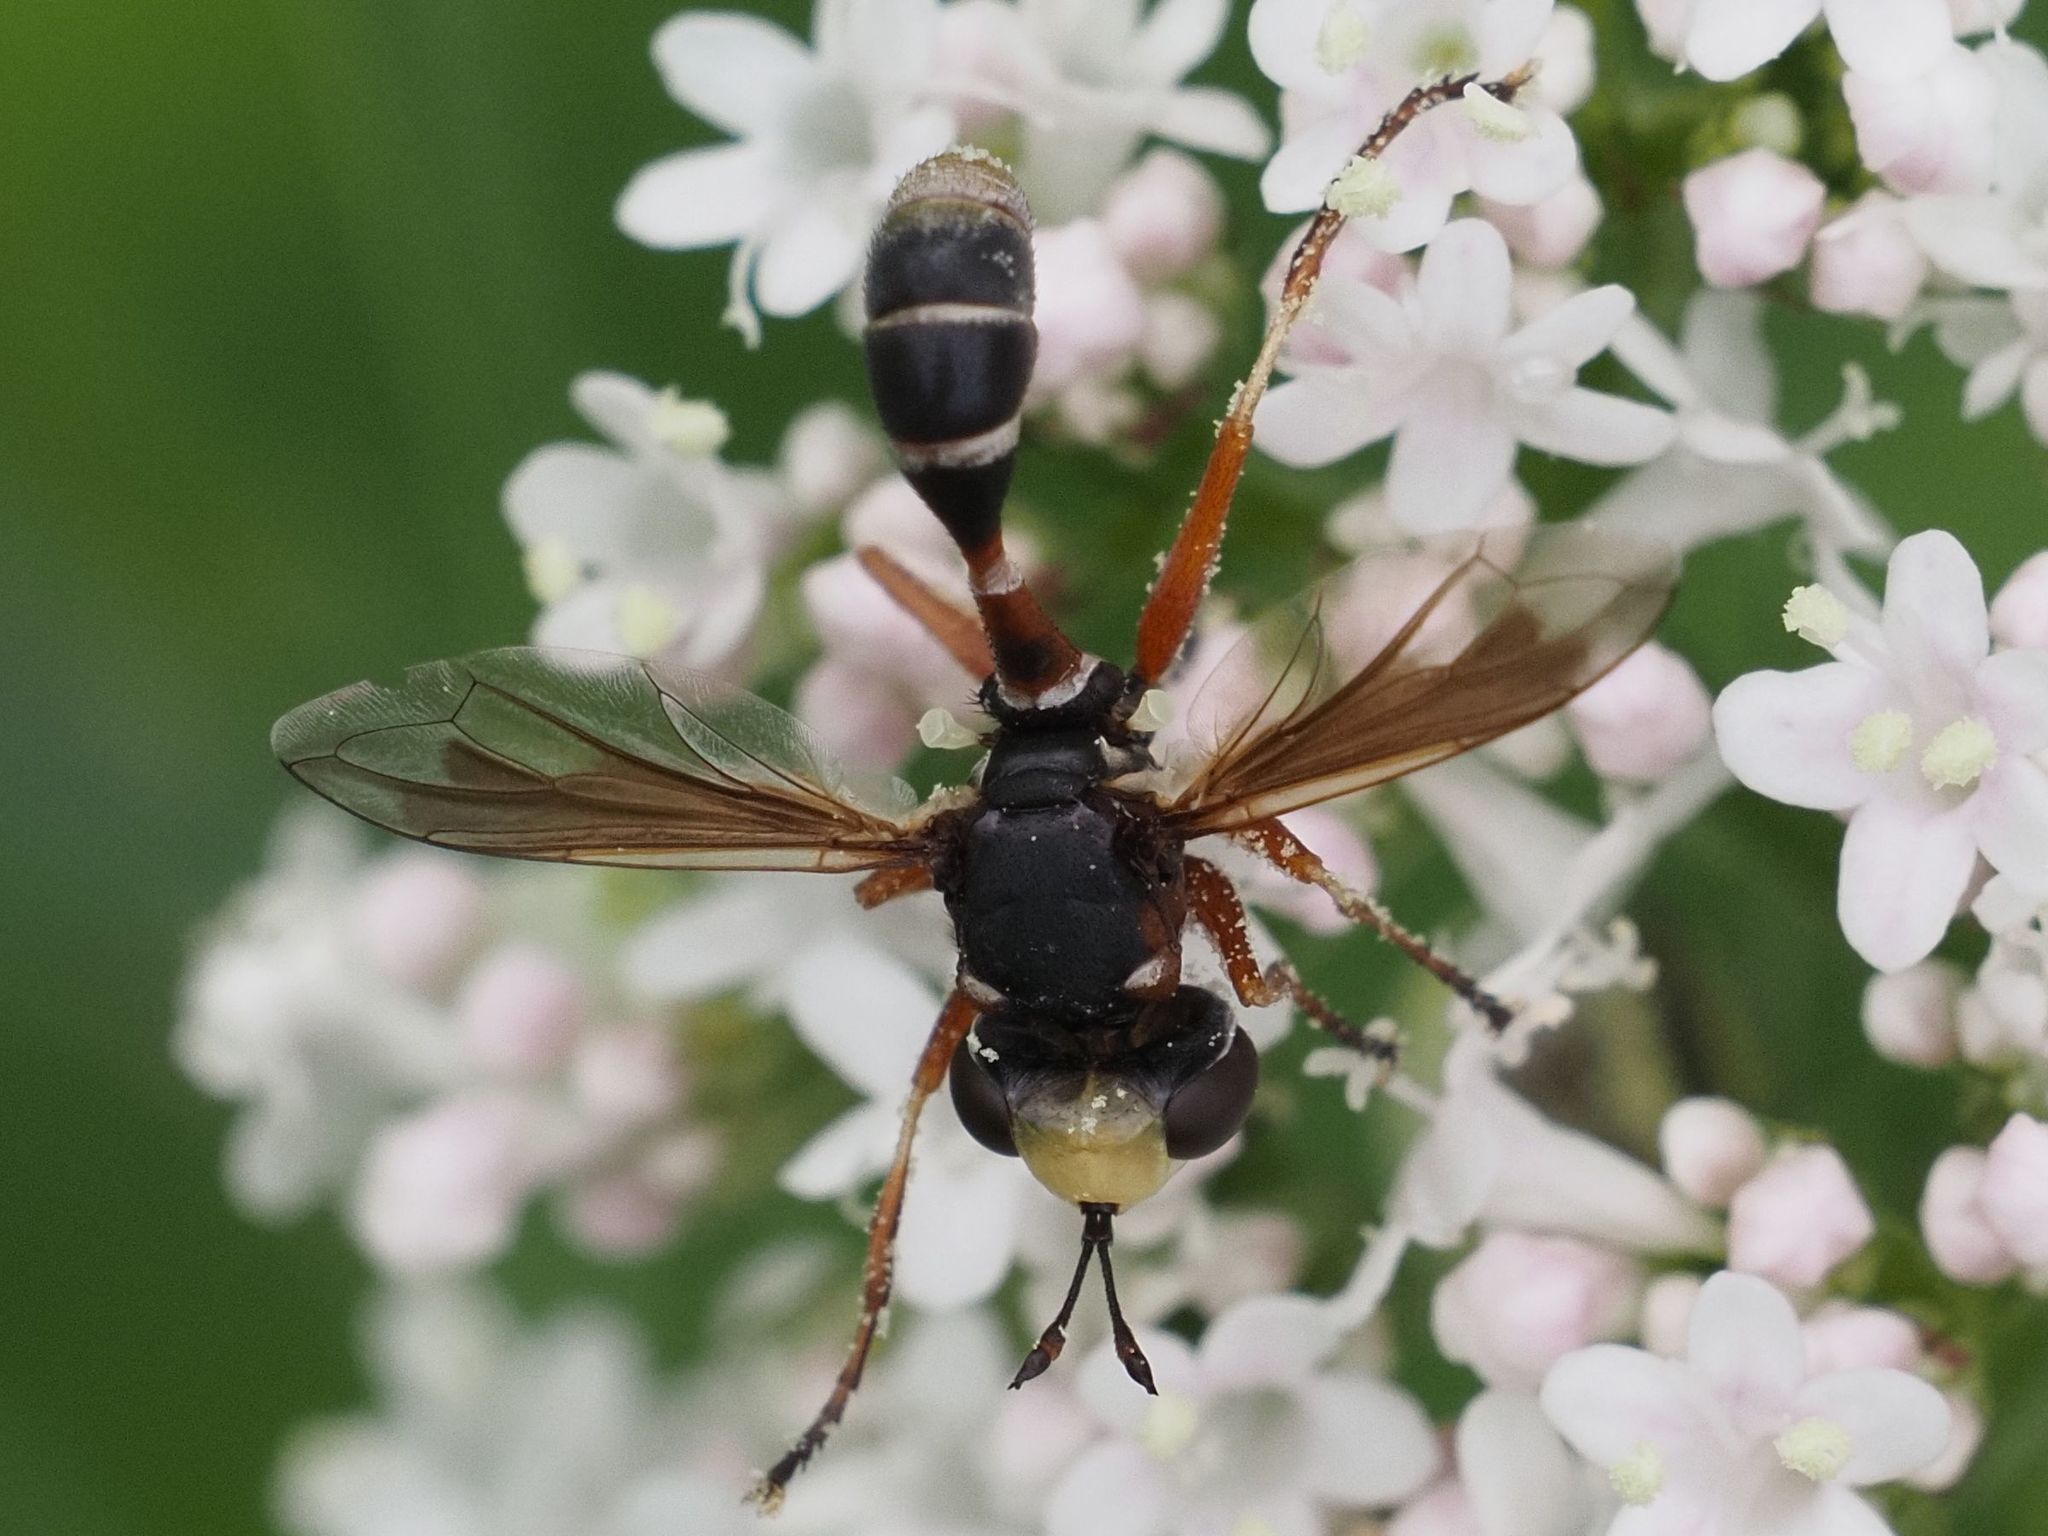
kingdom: Animalia
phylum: Arthropoda
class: Insecta
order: Diptera
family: Conopidae
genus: Physocephala
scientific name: Physocephala vittata
